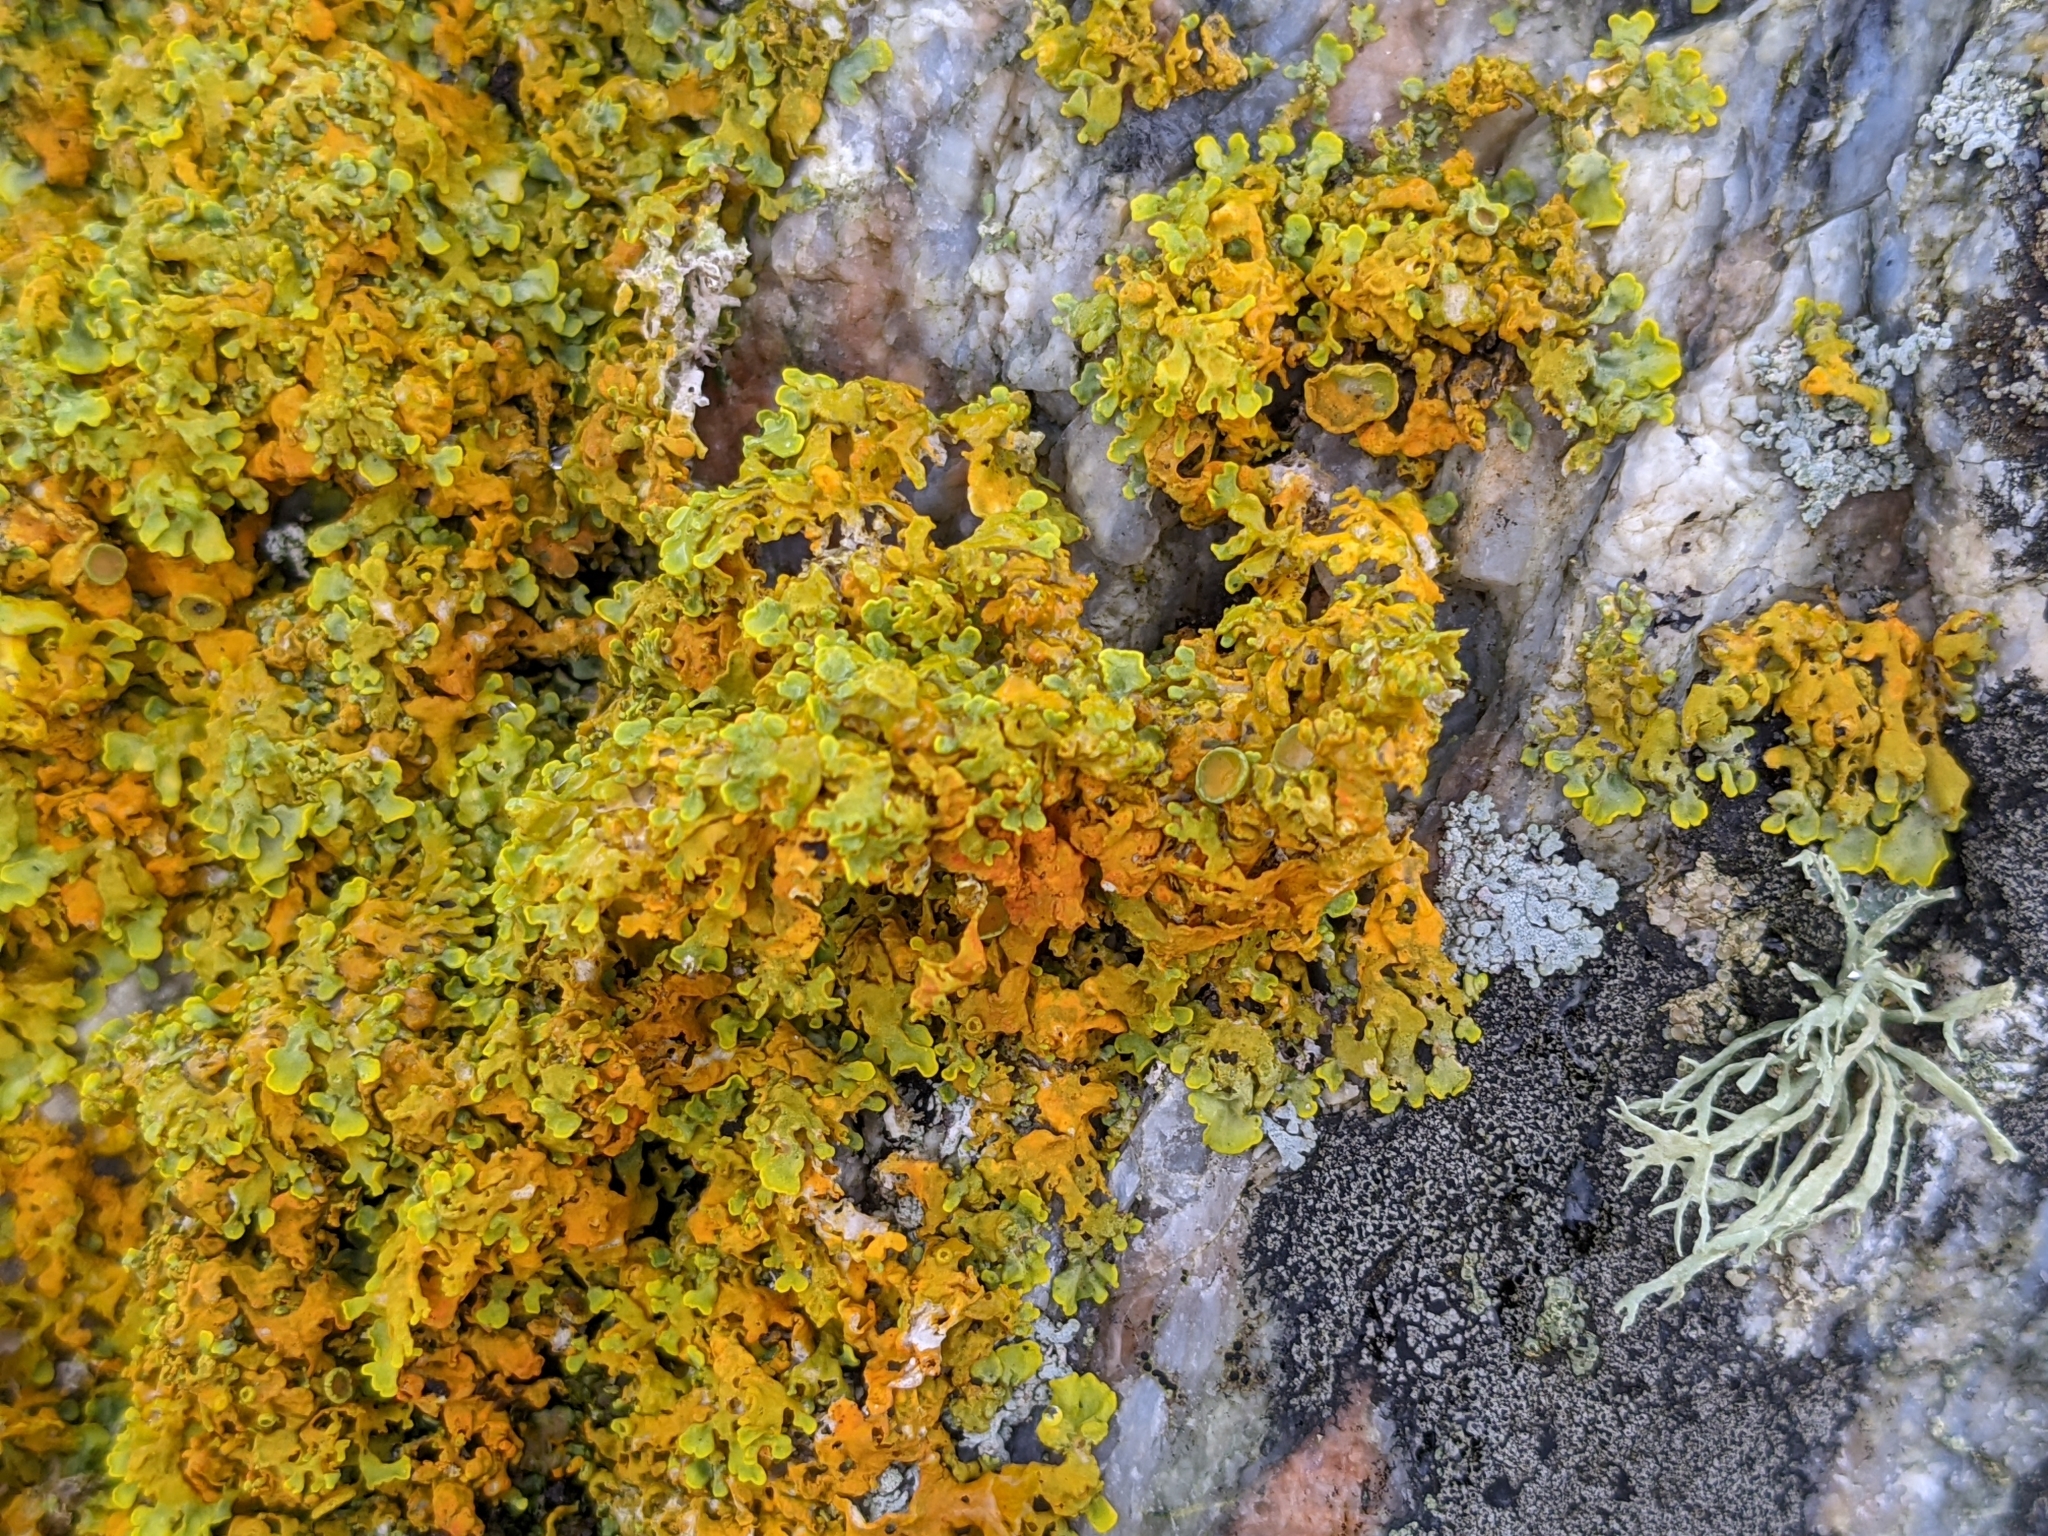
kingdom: Fungi
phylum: Ascomycota
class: Lecanoromycetes
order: Teloschistales
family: Teloschistaceae
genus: Xanthoria
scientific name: Xanthoria parietina
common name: Common orange lichen
